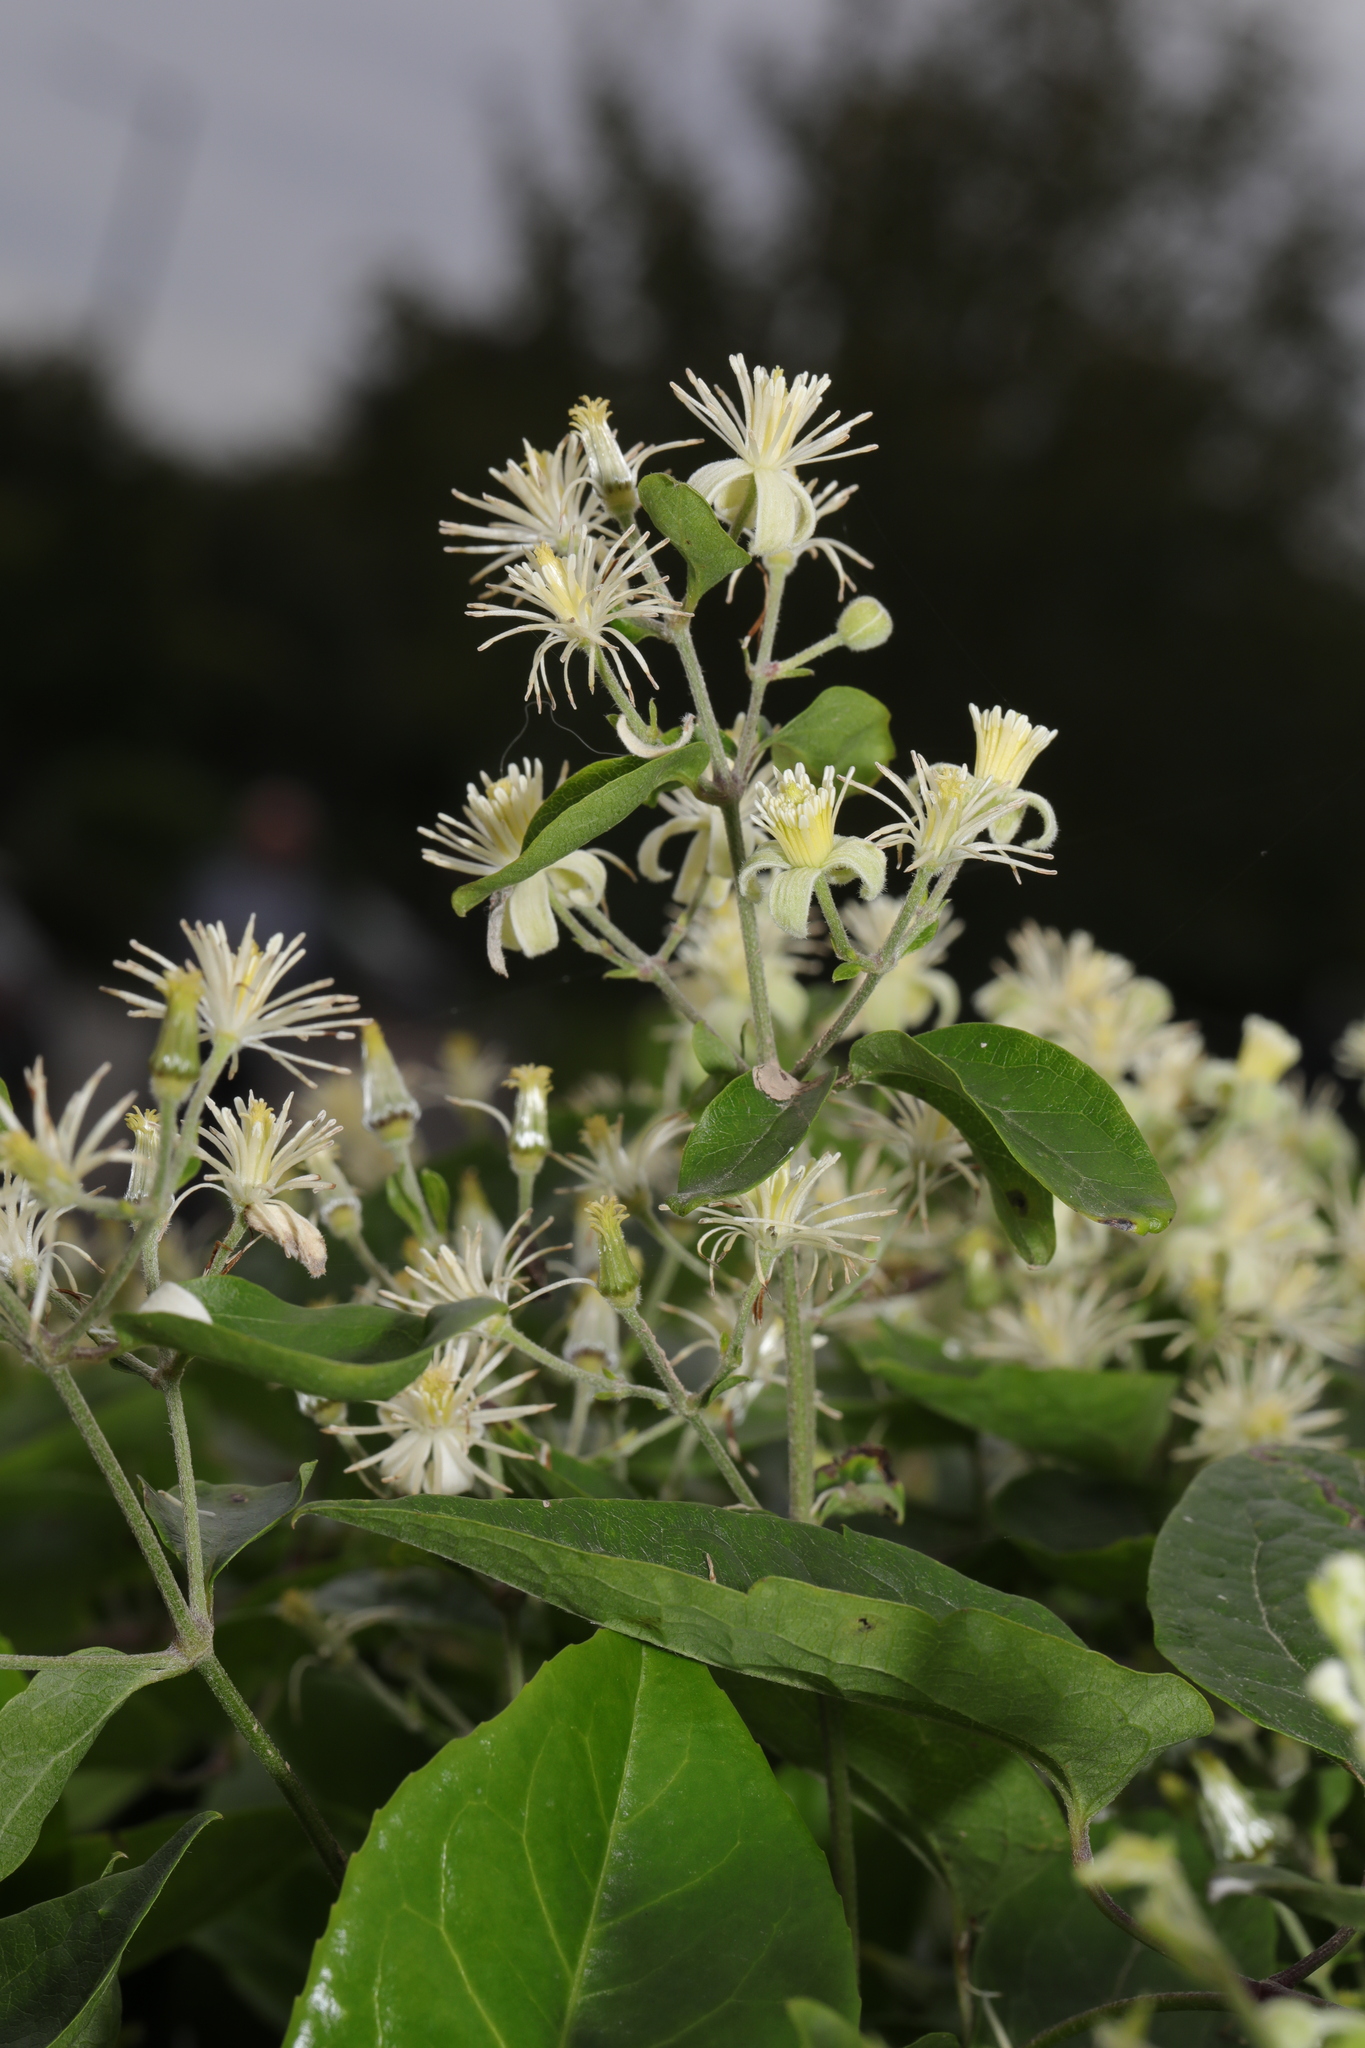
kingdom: Plantae
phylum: Tracheophyta
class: Magnoliopsida
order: Ranunculales
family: Ranunculaceae
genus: Clematis
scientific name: Clematis vitalba
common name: Evergreen clematis
